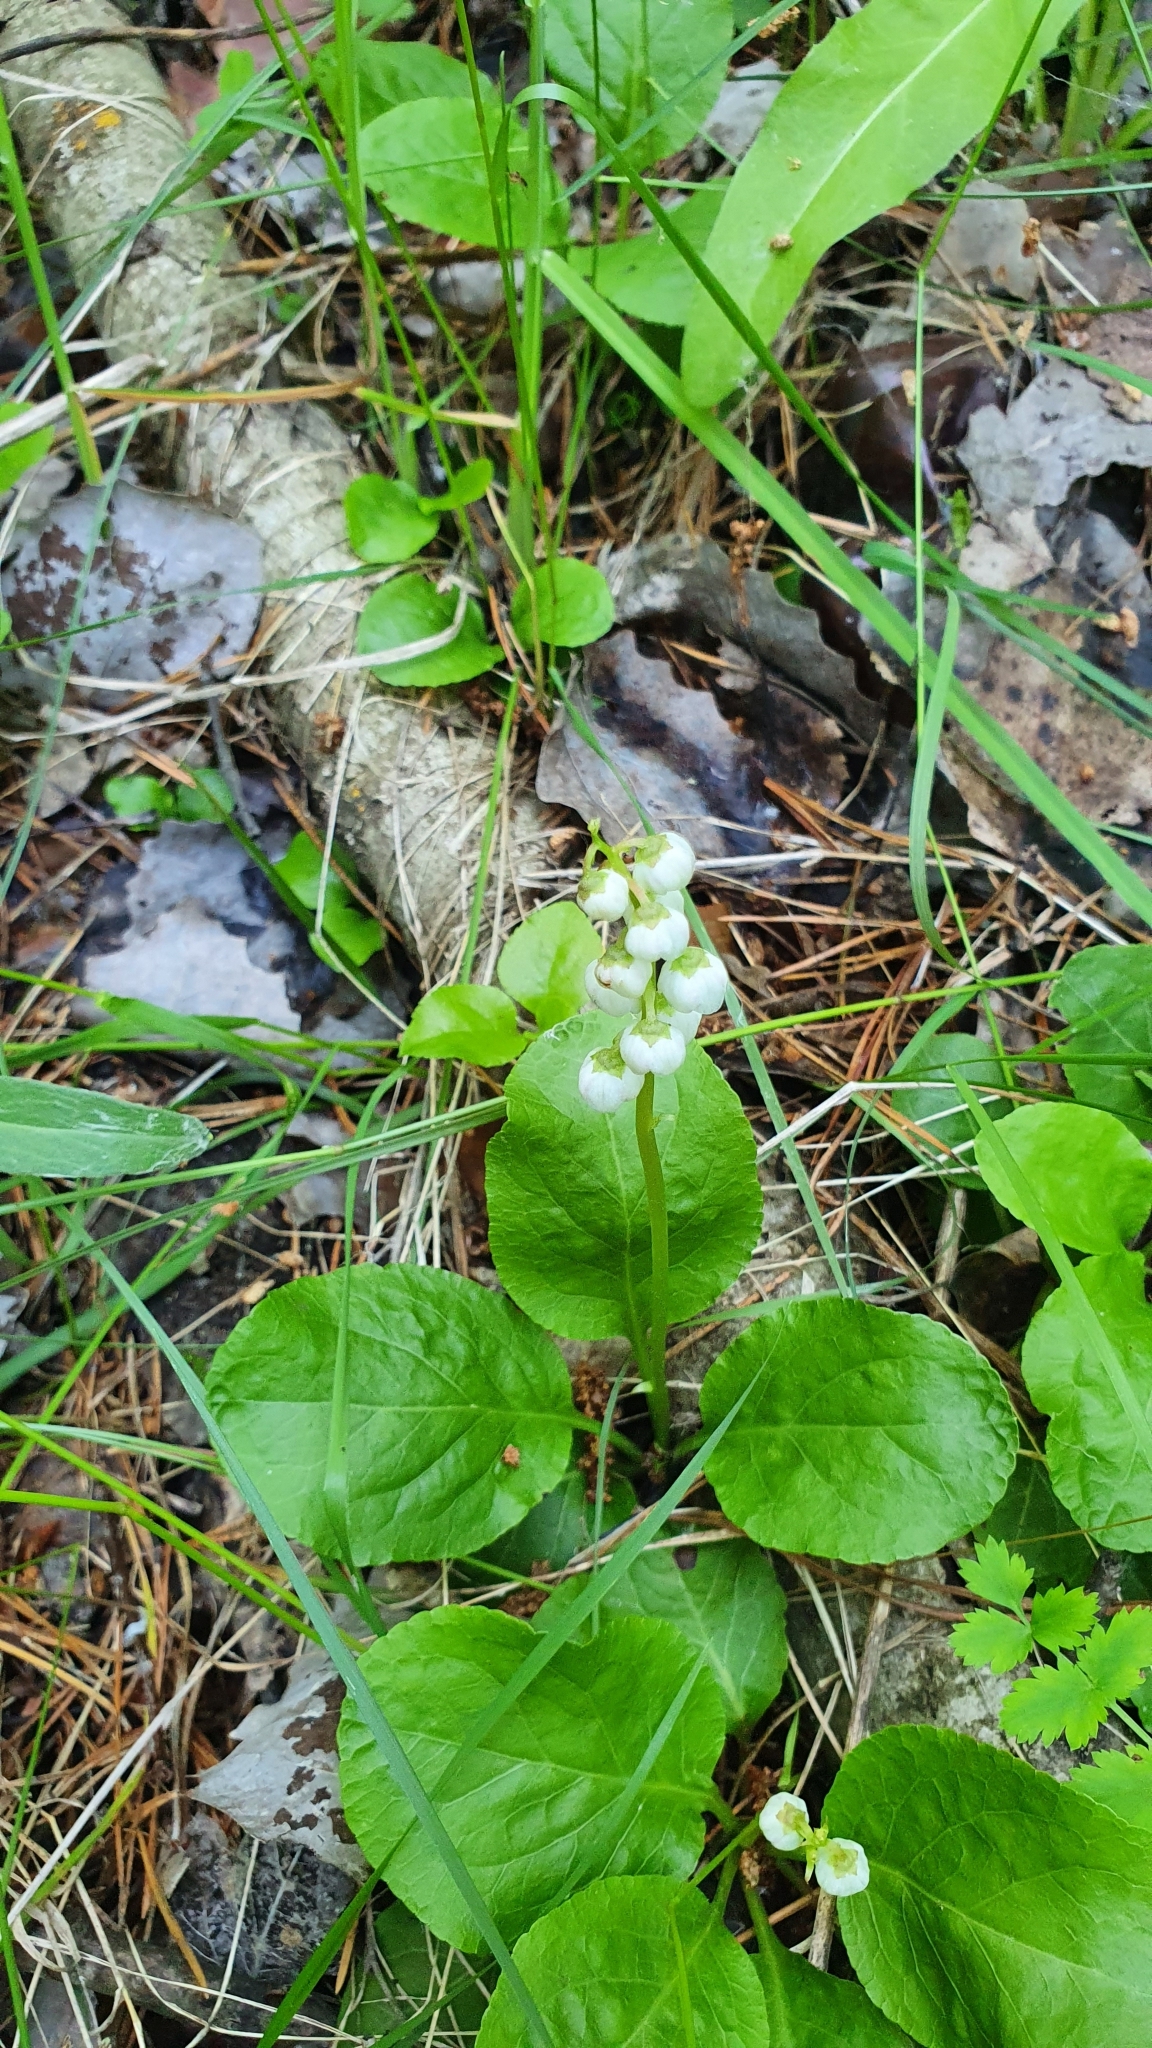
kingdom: Plantae
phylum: Tracheophyta
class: Magnoliopsida
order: Ericales
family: Ericaceae
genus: Pyrola
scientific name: Pyrola minor
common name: Common wintergreen
